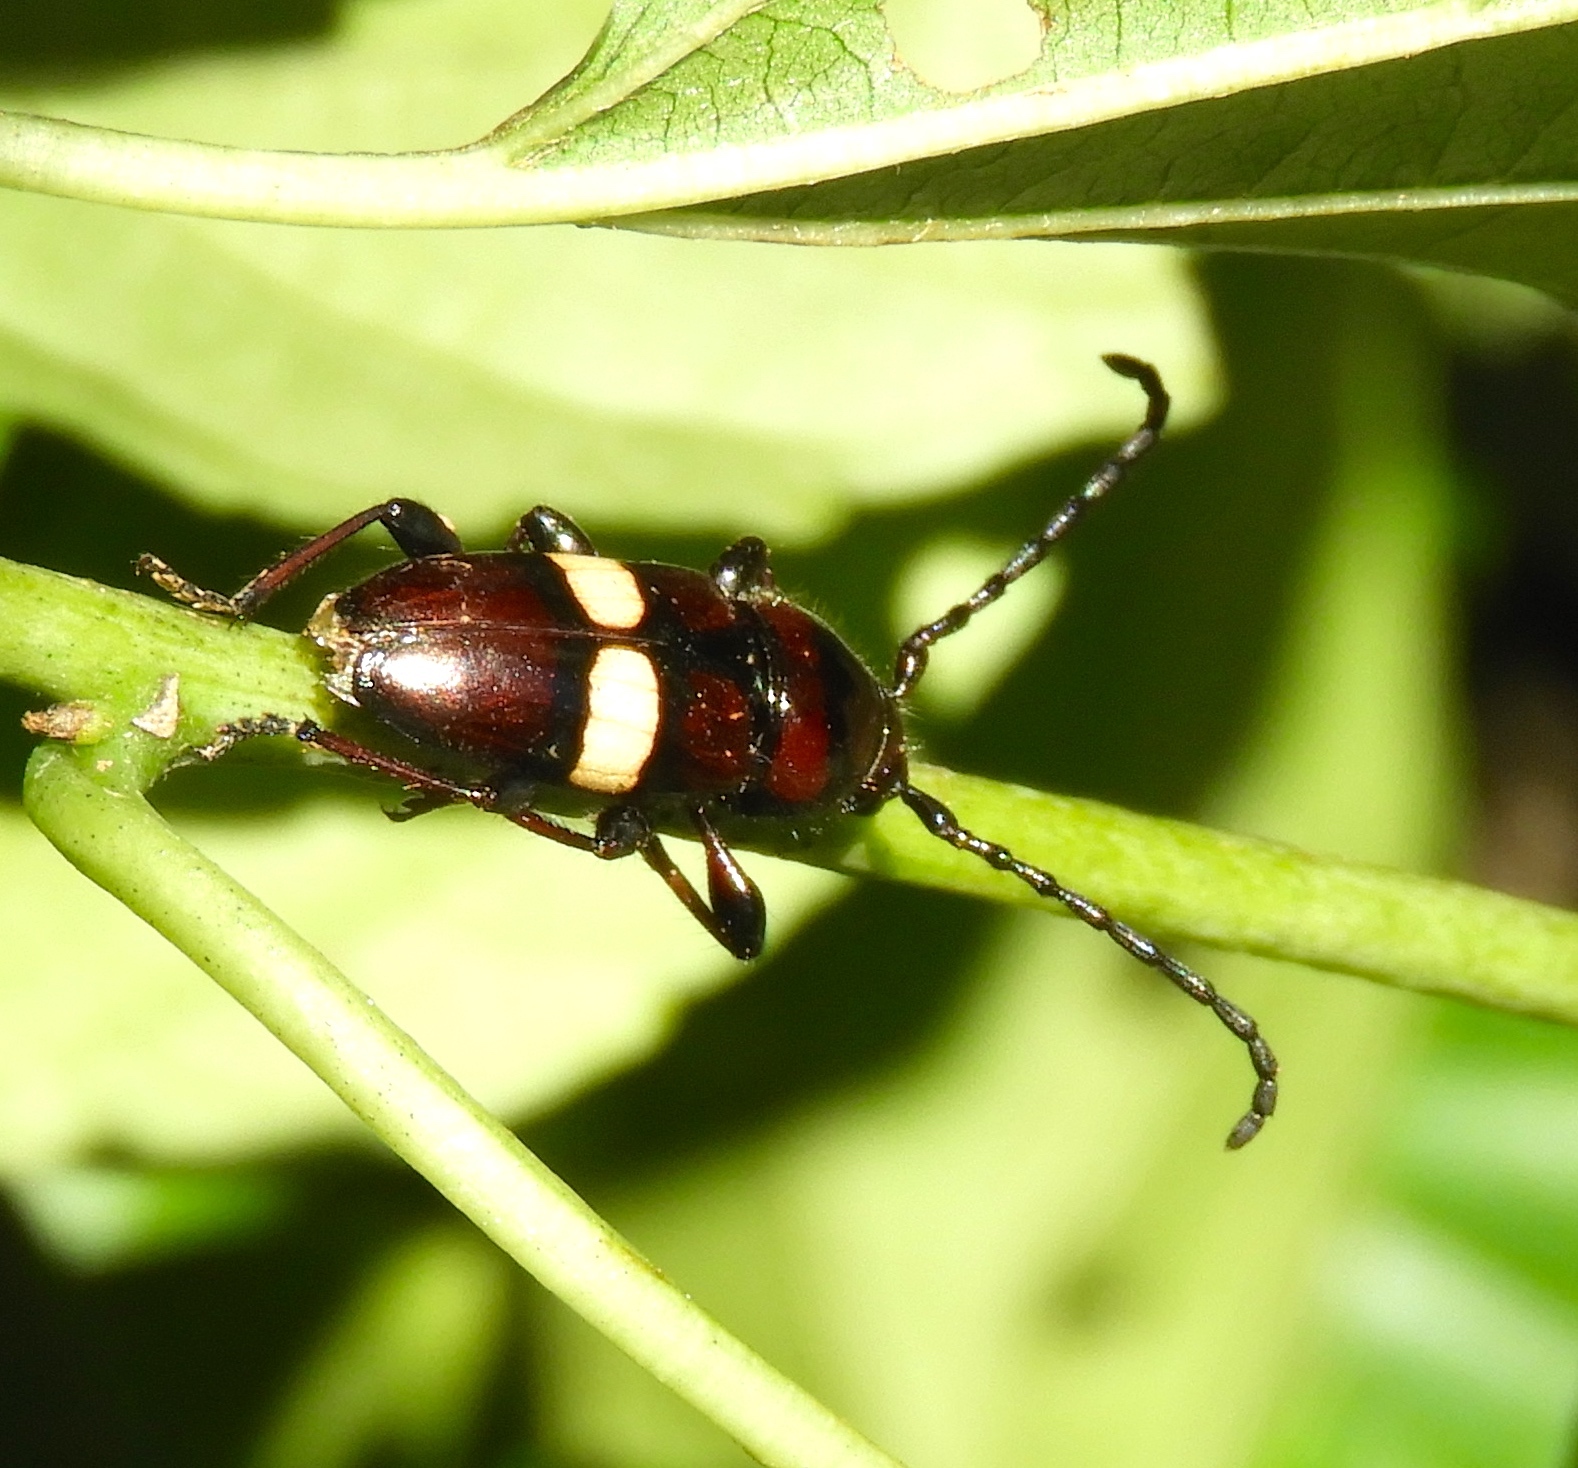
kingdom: Animalia
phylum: Arthropoda
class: Insecta
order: Coleoptera
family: Cerambycidae
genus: Lissonotus
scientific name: Lissonotus flavocinctus
